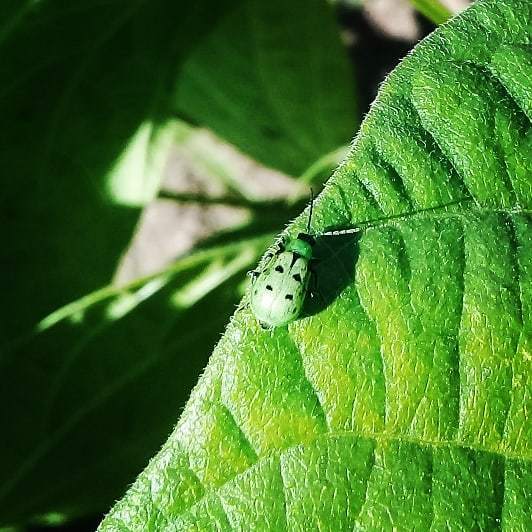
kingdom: Animalia
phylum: Arthropoda
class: Insecta
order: Coleoptera
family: Chrysomelidae
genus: Diabrotica
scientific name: Diabrotica decempunctata
